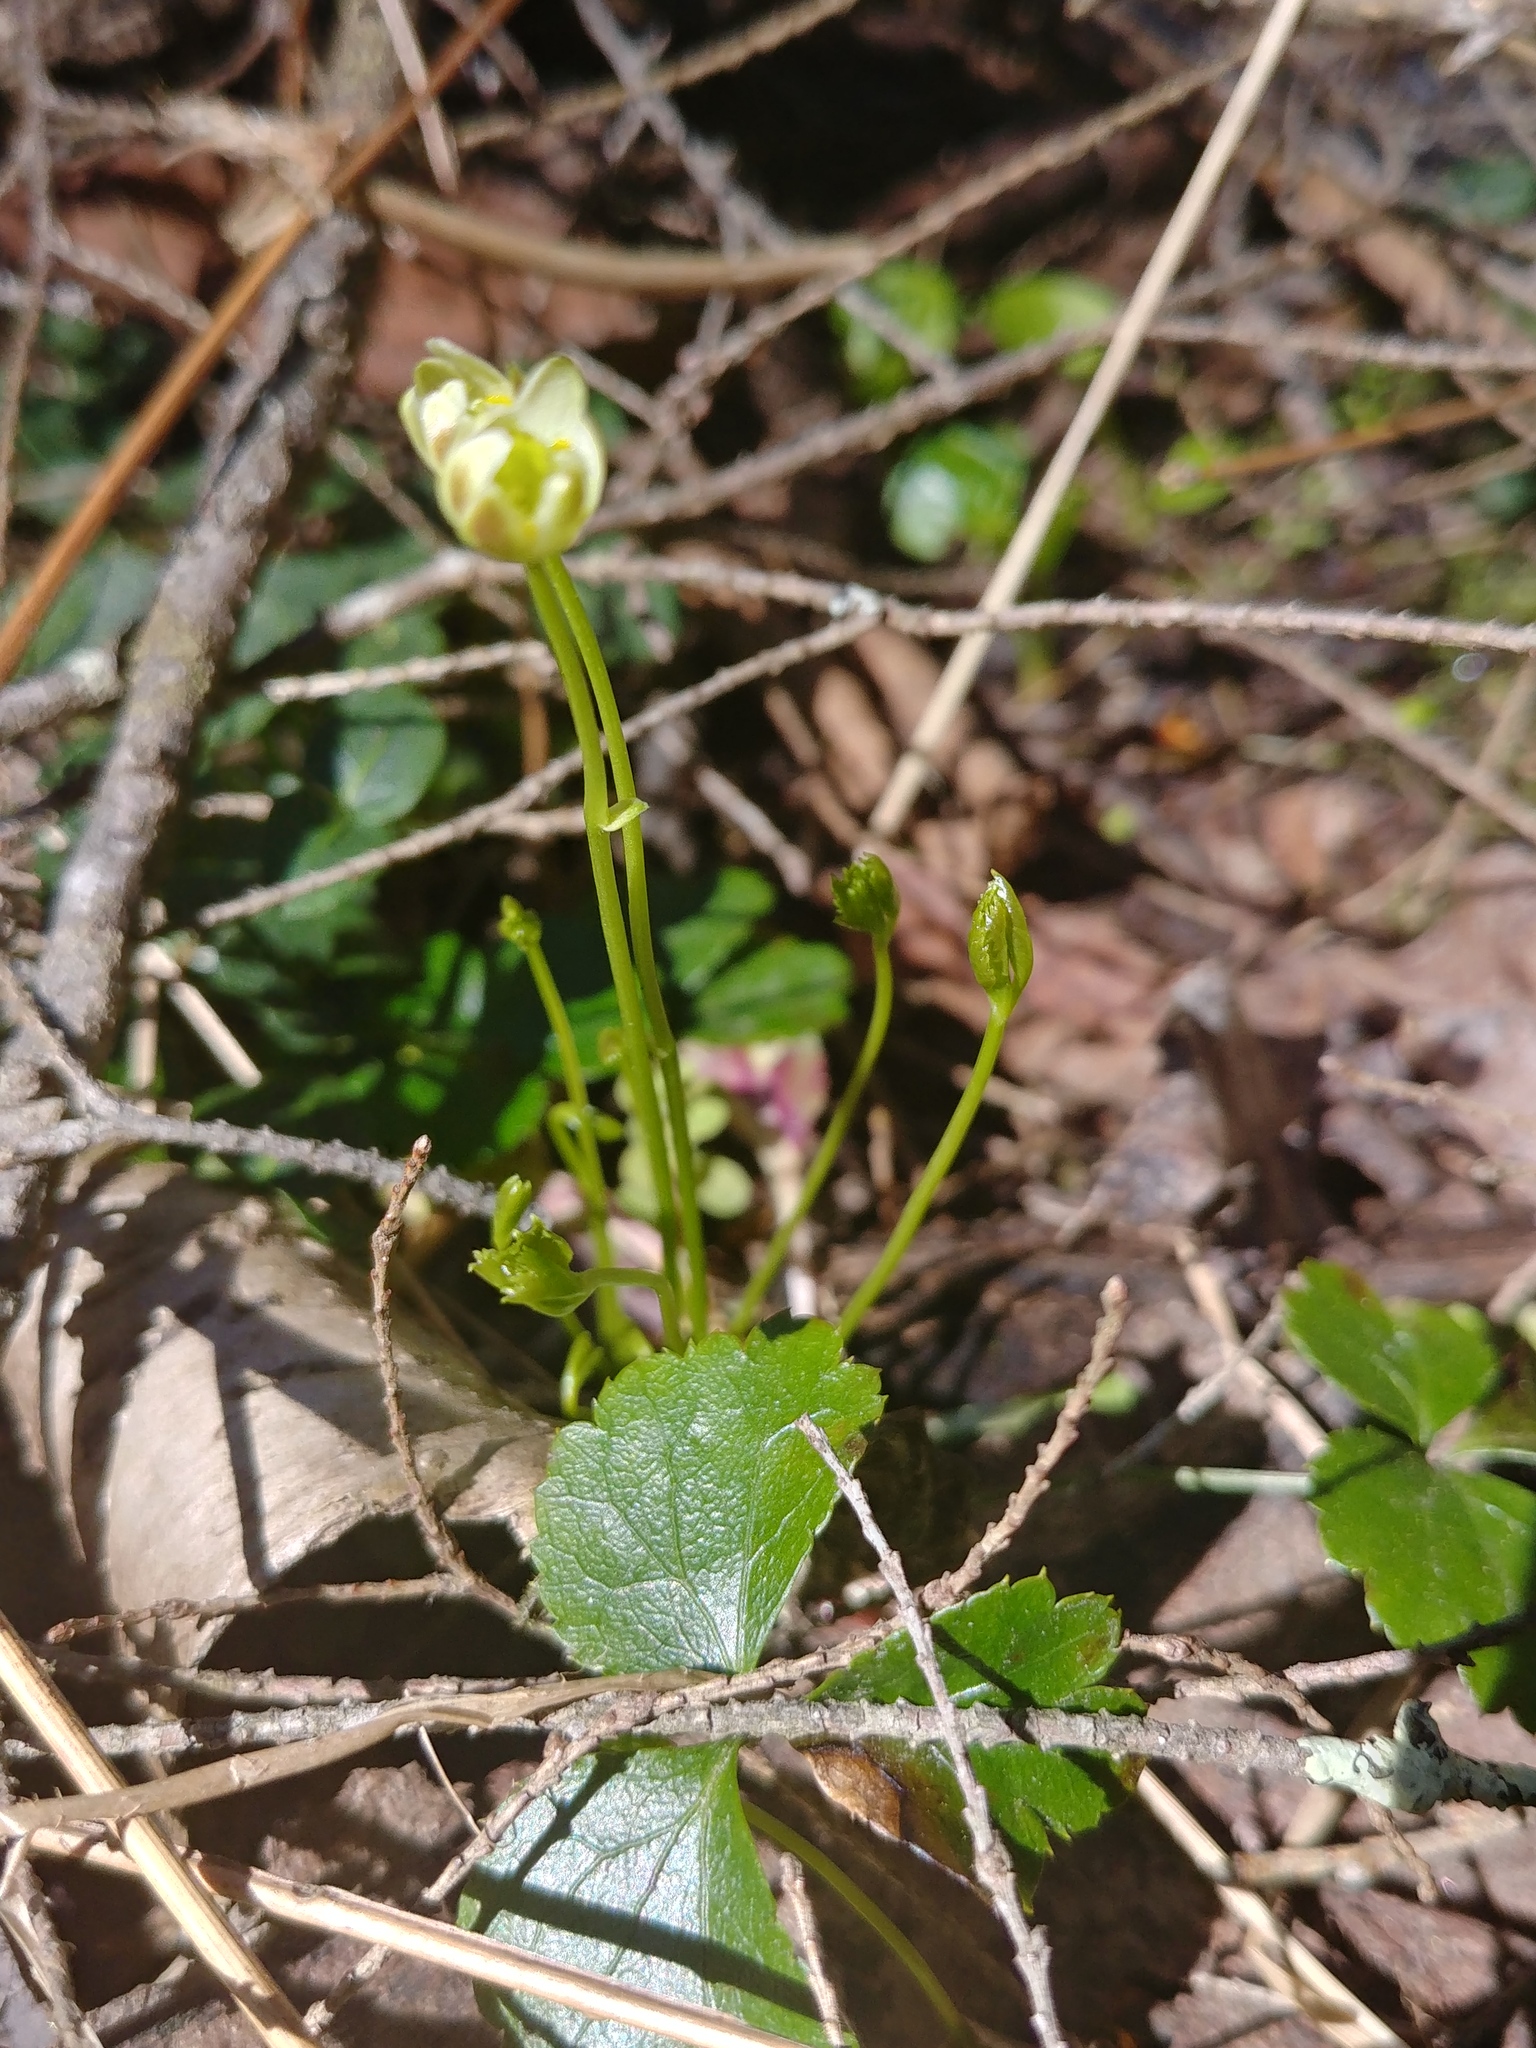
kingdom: Plantae
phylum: Tracheophyta
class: Magnoliopsida
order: Ranunculales
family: Ranunculaceae
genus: Coptis
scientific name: Coptis trifolia
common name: Canker-root
